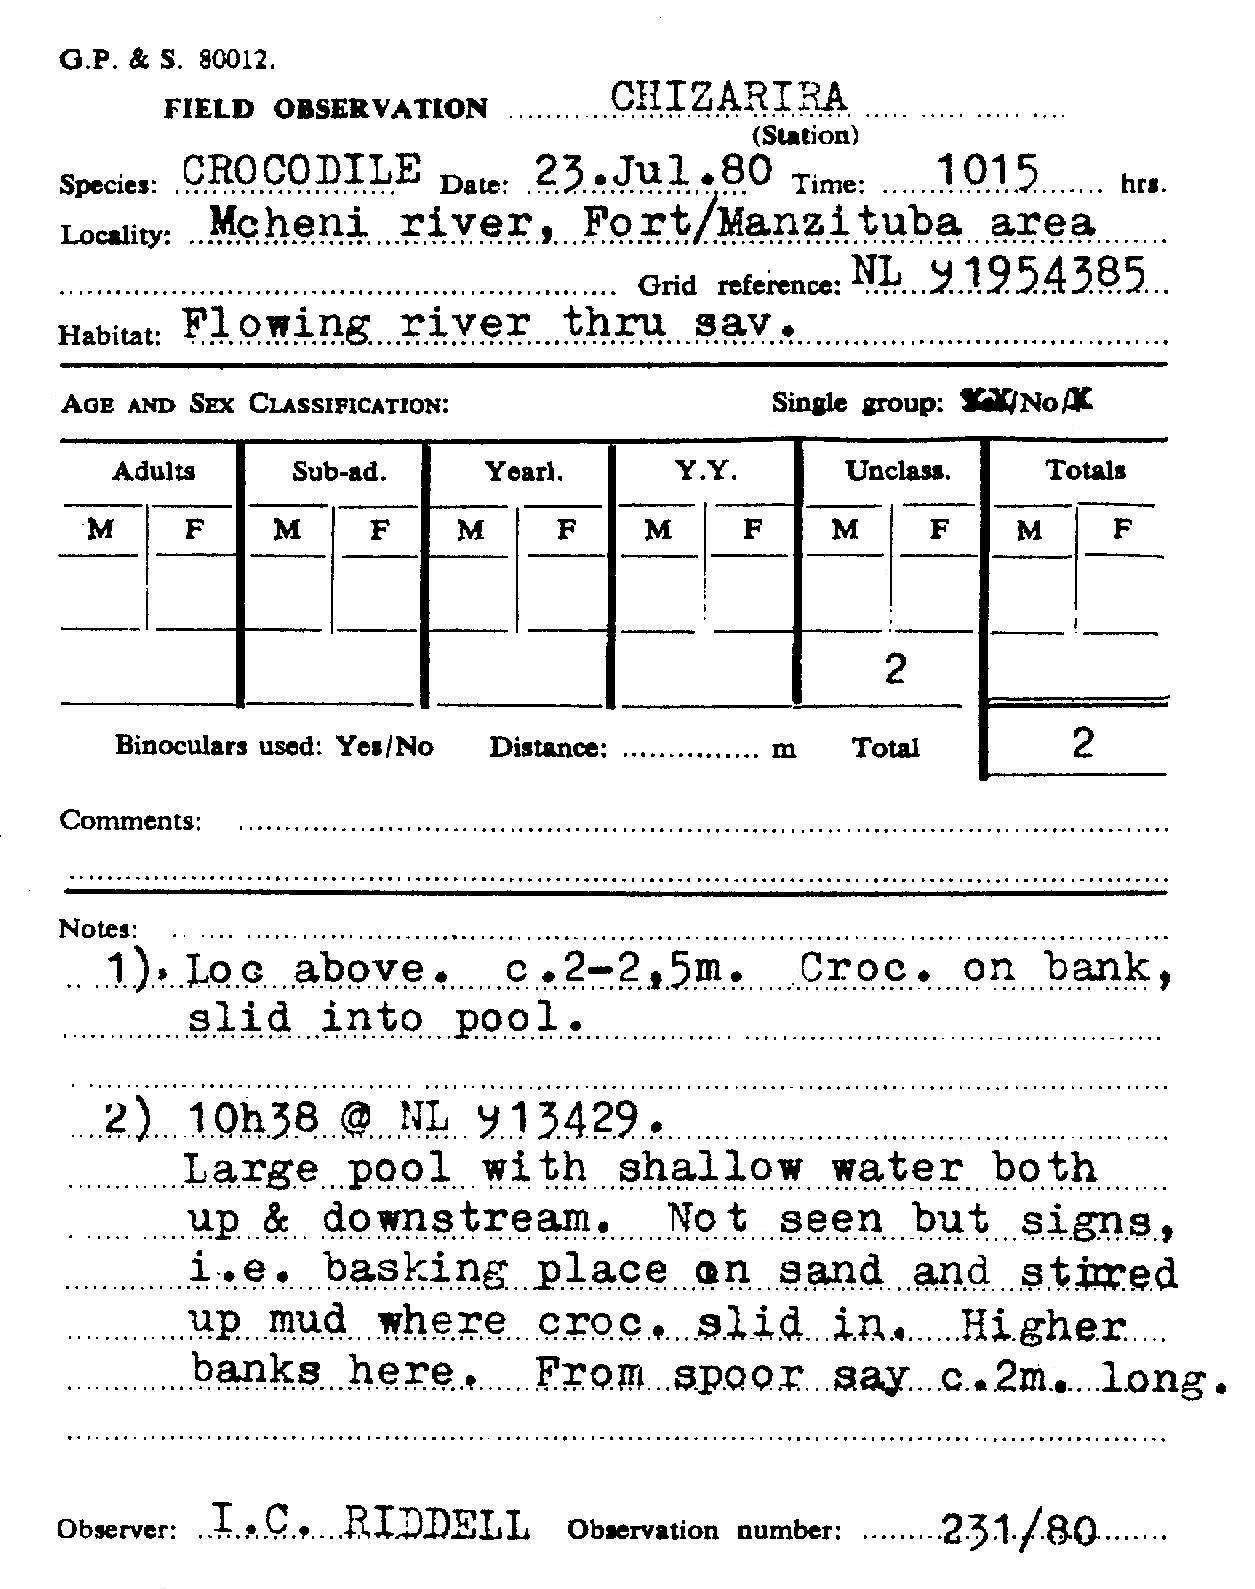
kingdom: Animalia
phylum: Chordata
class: Crocodylia
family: Crocodylidae
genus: Crocodylus
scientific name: Crocodylus niloticus
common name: Nile crocodile
